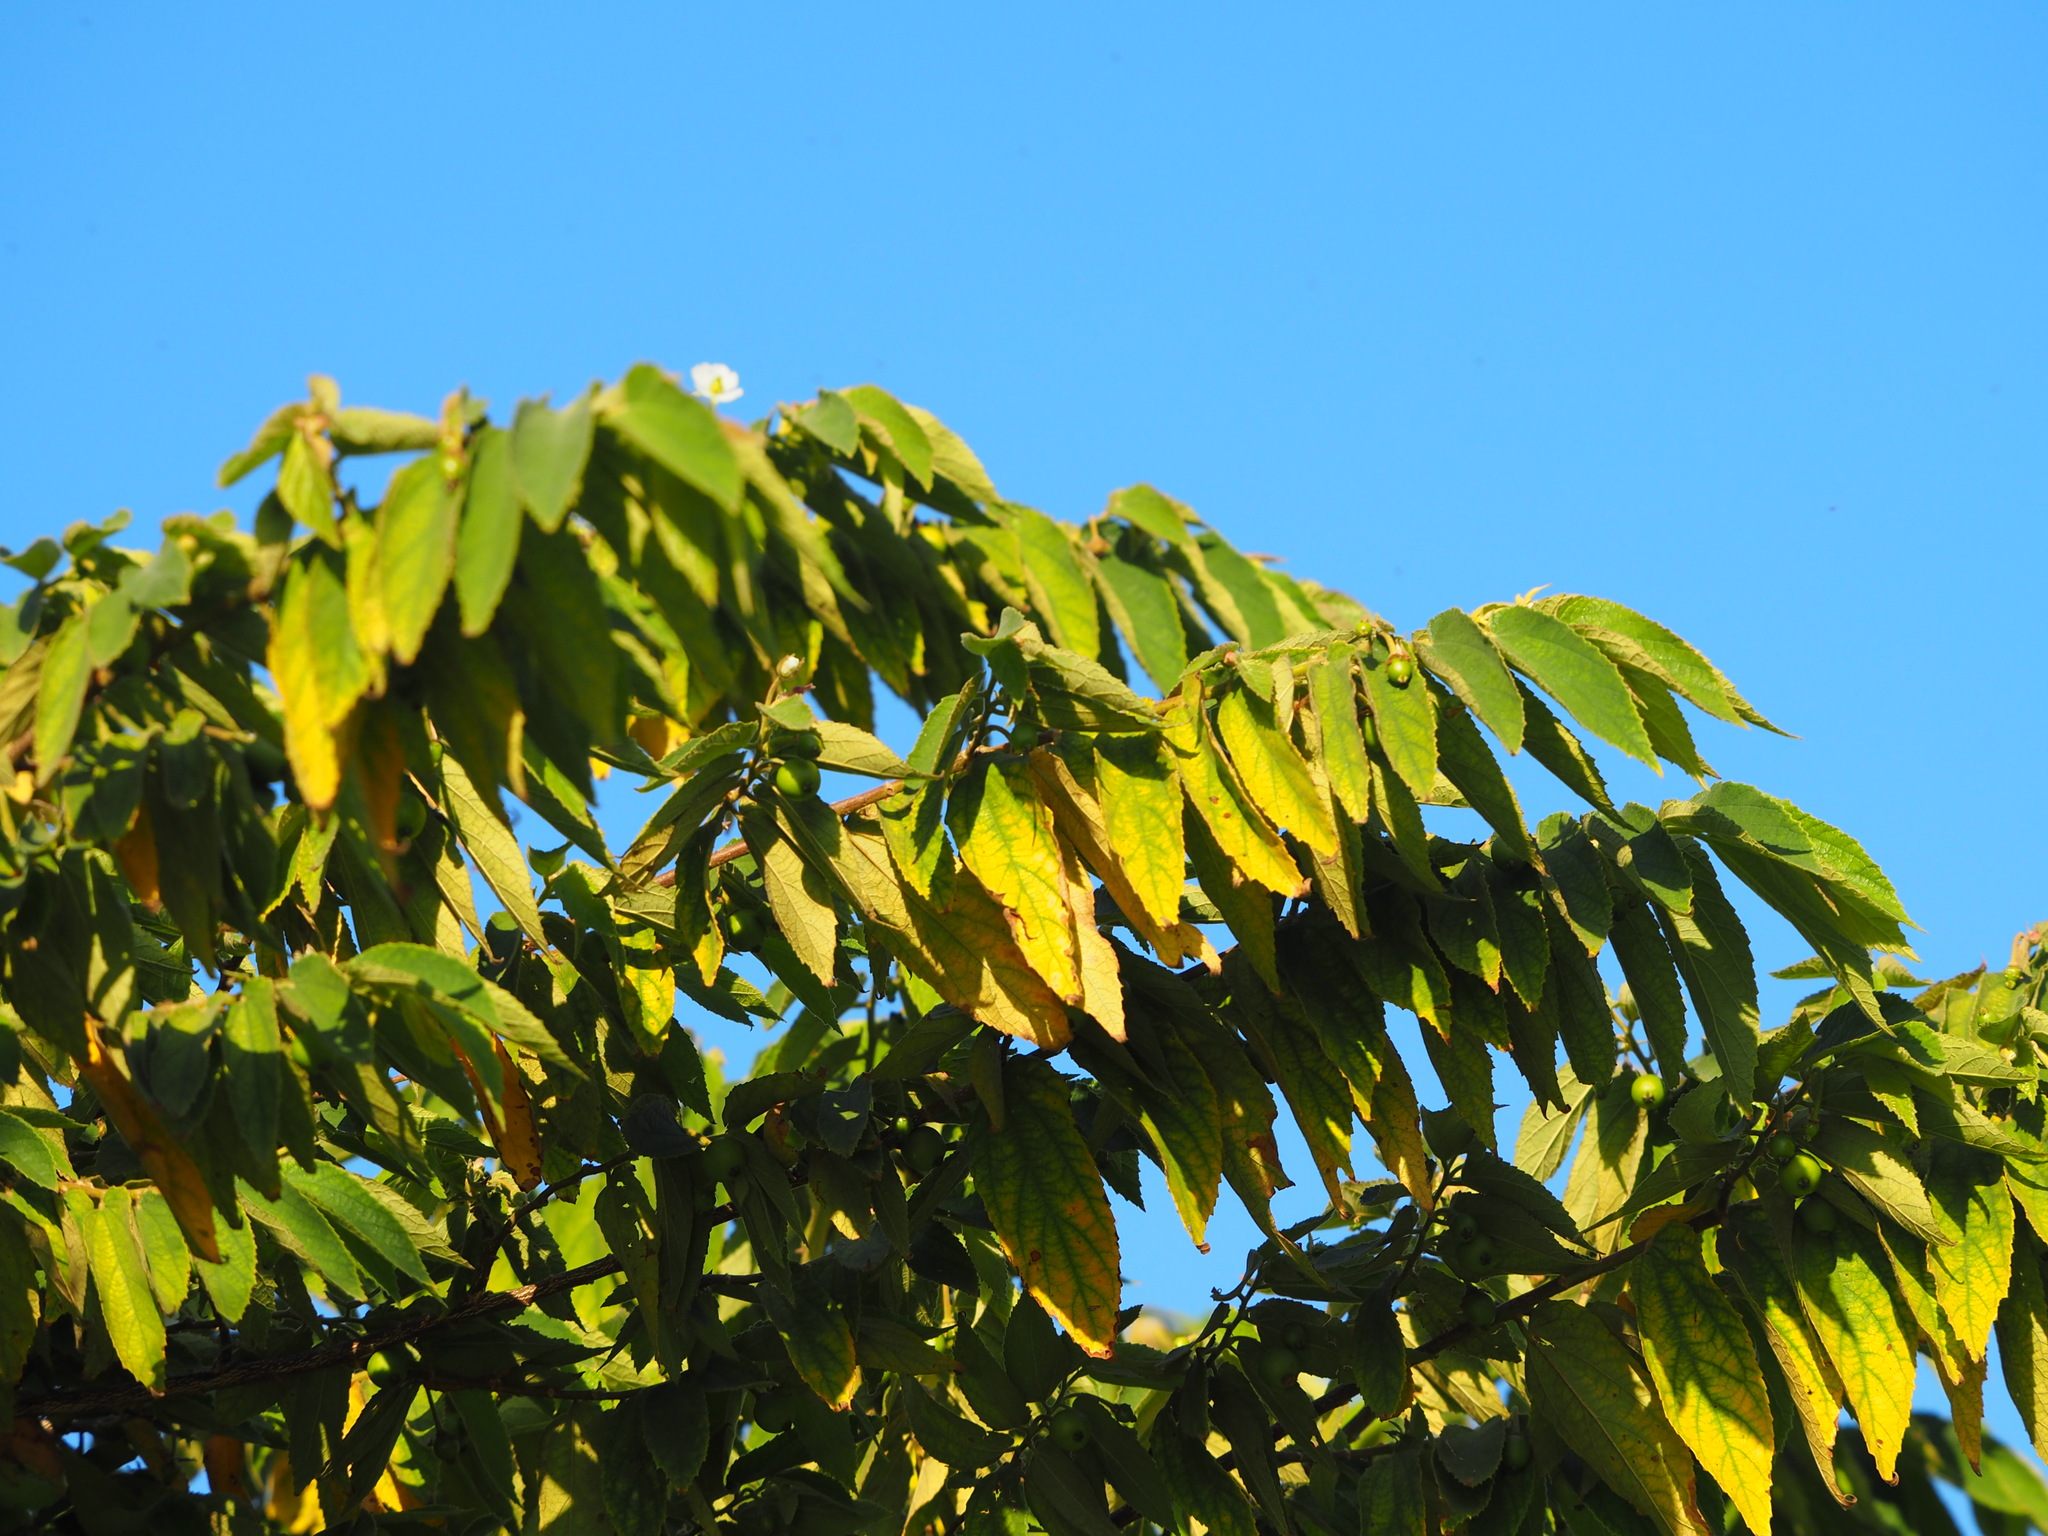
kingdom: Plantae
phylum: Tracheophyta
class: Magnoliopsida
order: Malvales
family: Muntingiaceae
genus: Muntingia
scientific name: Muntingia calabura
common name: Strawberrytree
